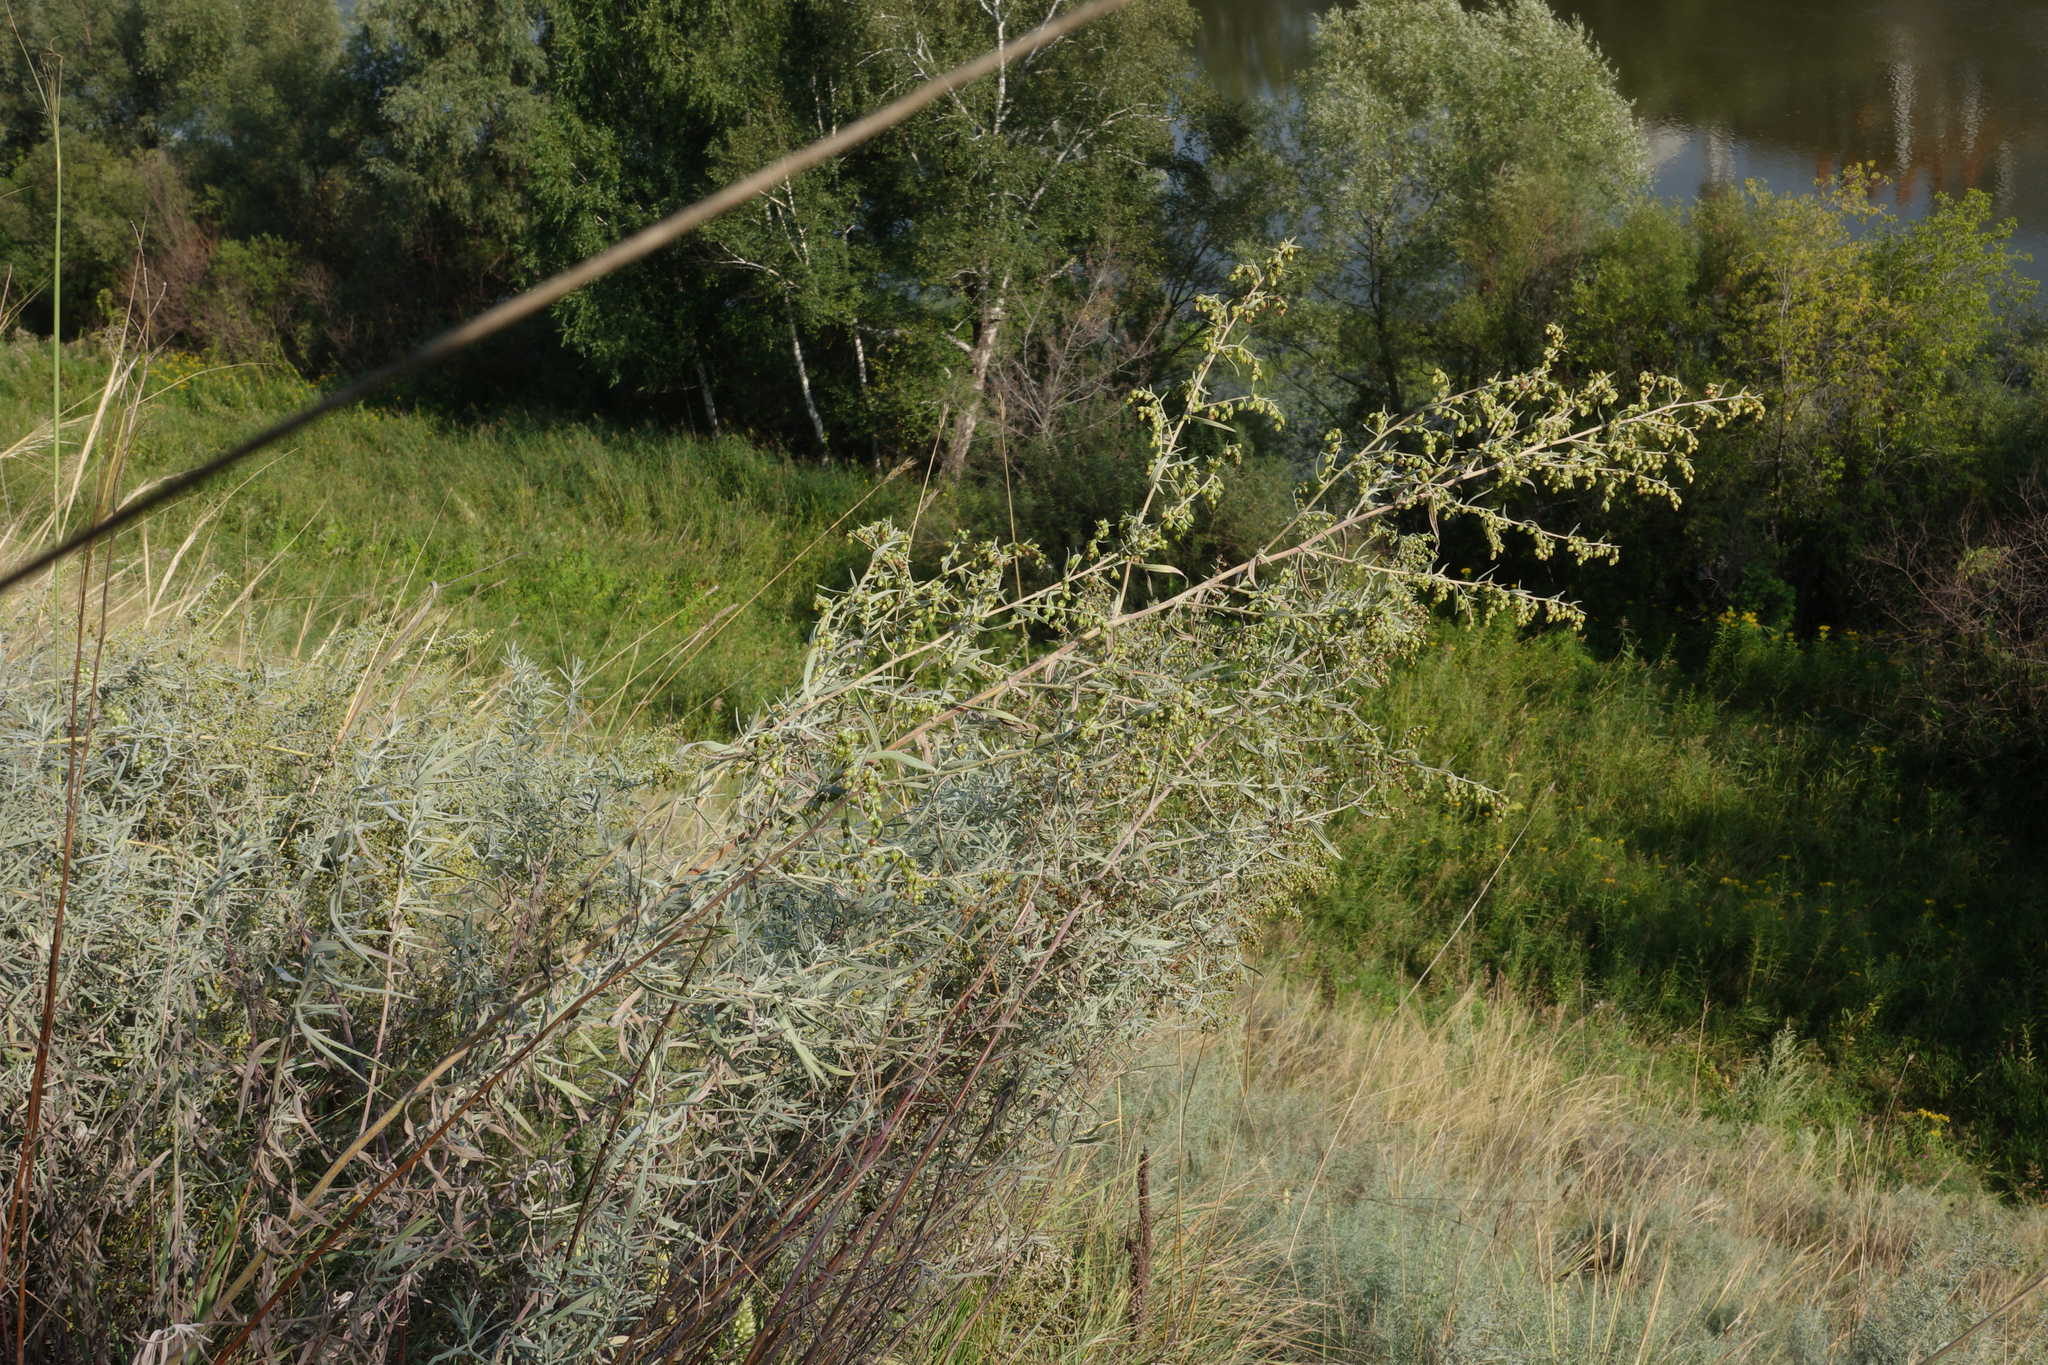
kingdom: Plantae
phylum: Tracheophyta
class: Magnoliopsida
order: Asterales
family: Asteraceae
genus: Artemisia
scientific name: Artemisia glauca
